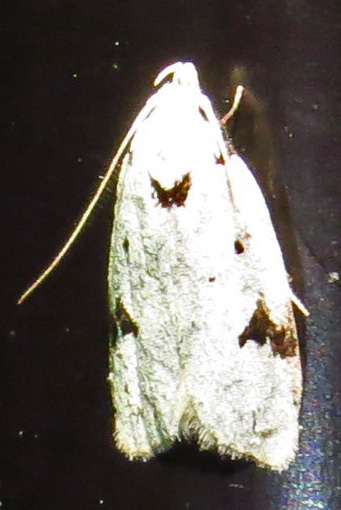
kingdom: Animalia
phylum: Arthropoda
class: Insecta
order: Lepidoptera
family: Oecophoridae
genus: Inga
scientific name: Inga sparsiciliella
